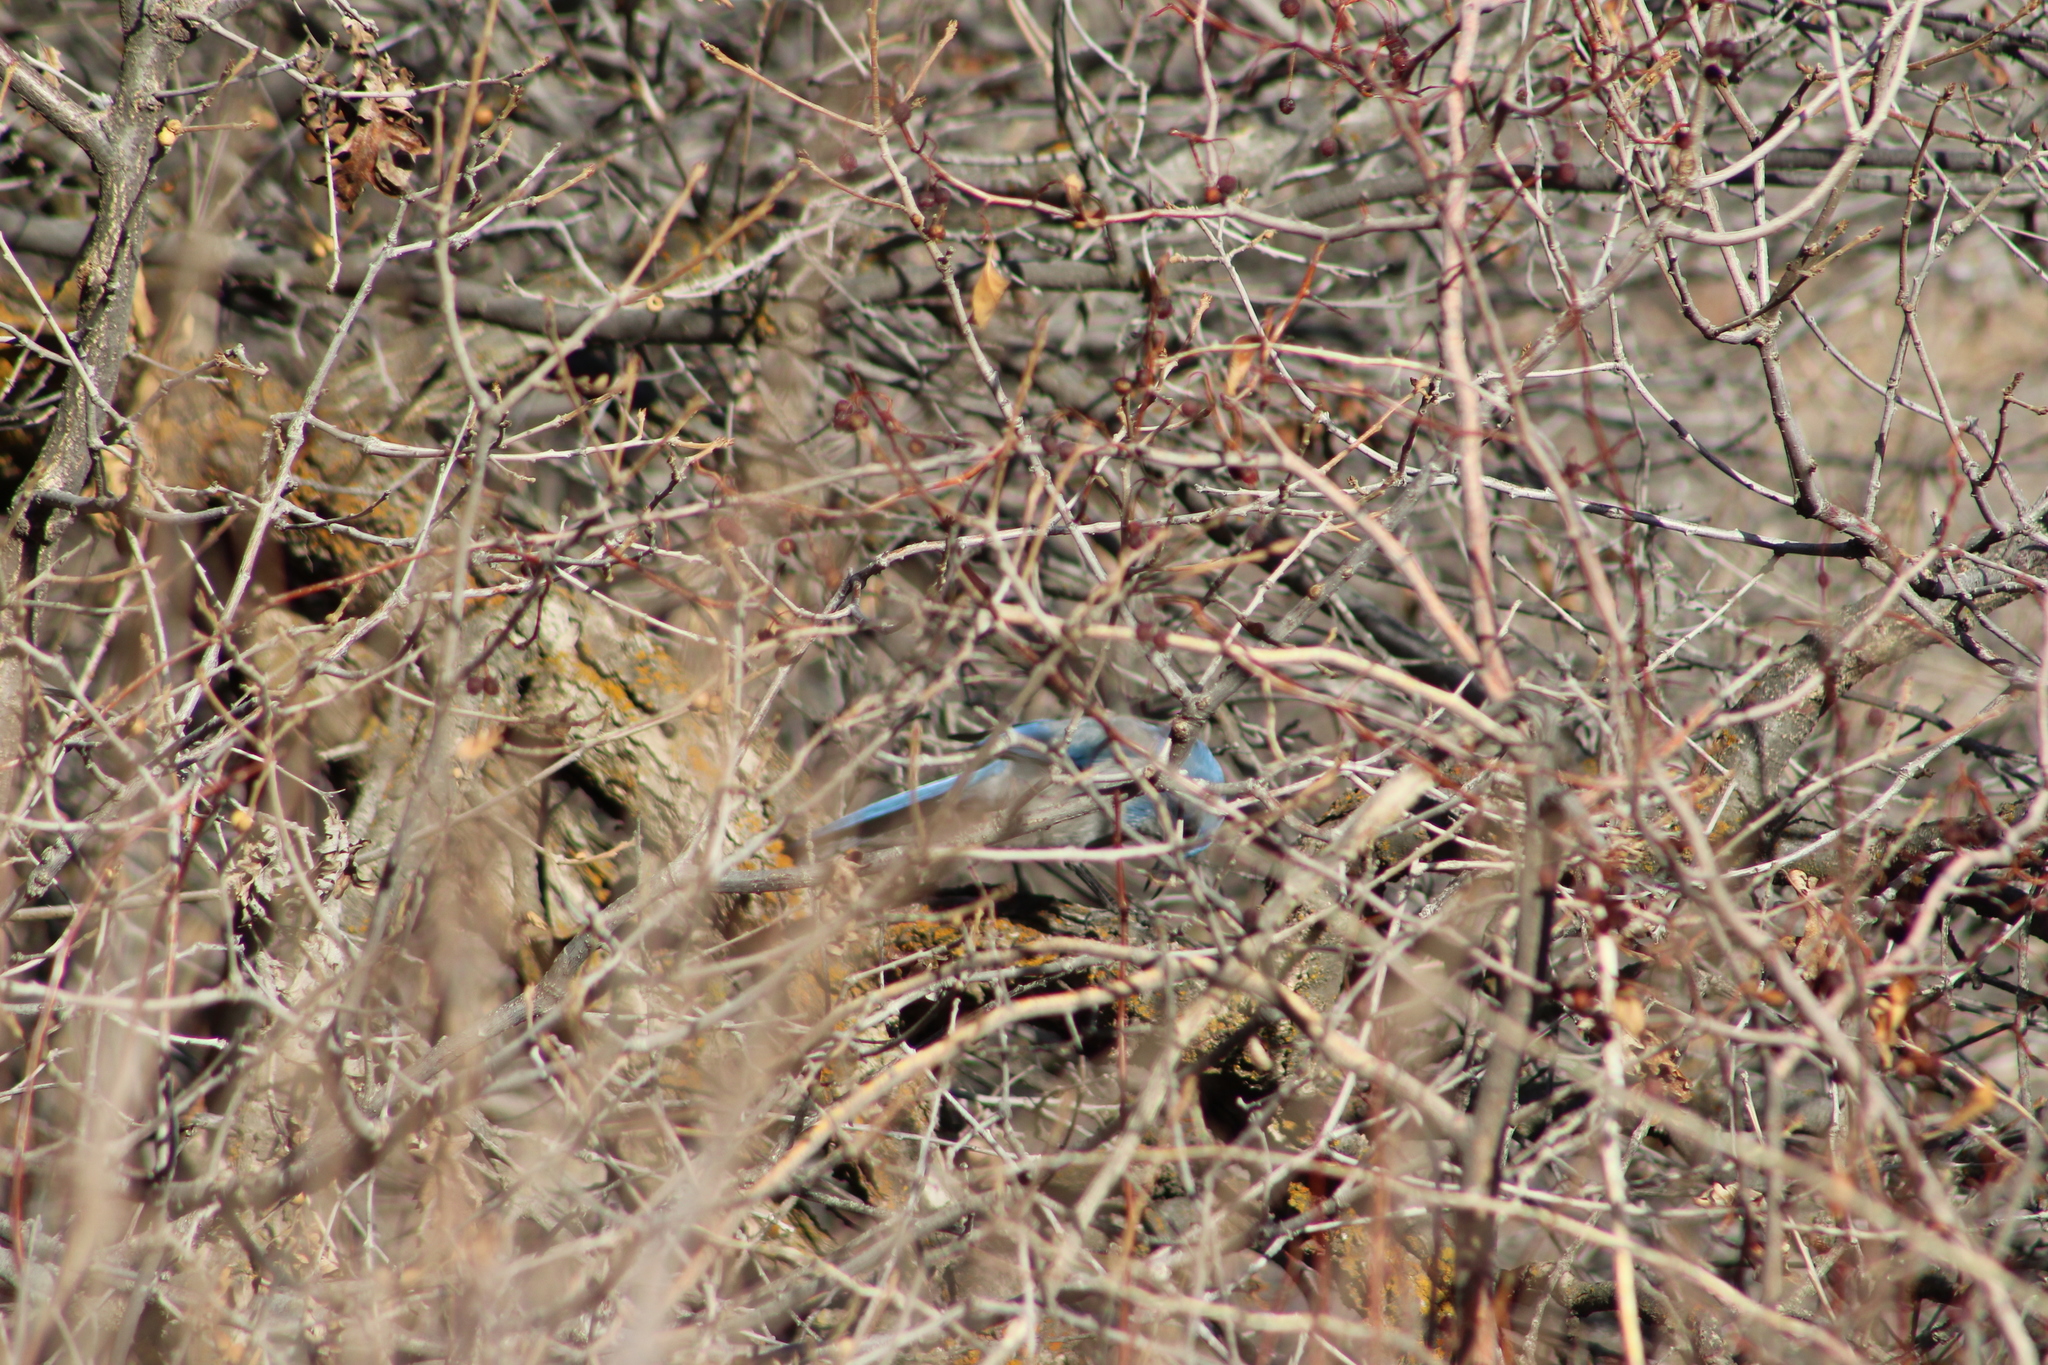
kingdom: Animalia
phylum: Chordata
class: Aves
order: Passeriformes
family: Corvidae
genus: Aphelocoma
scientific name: Aphelocoma woodhouseii
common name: Woodhouse's scrub-jay
